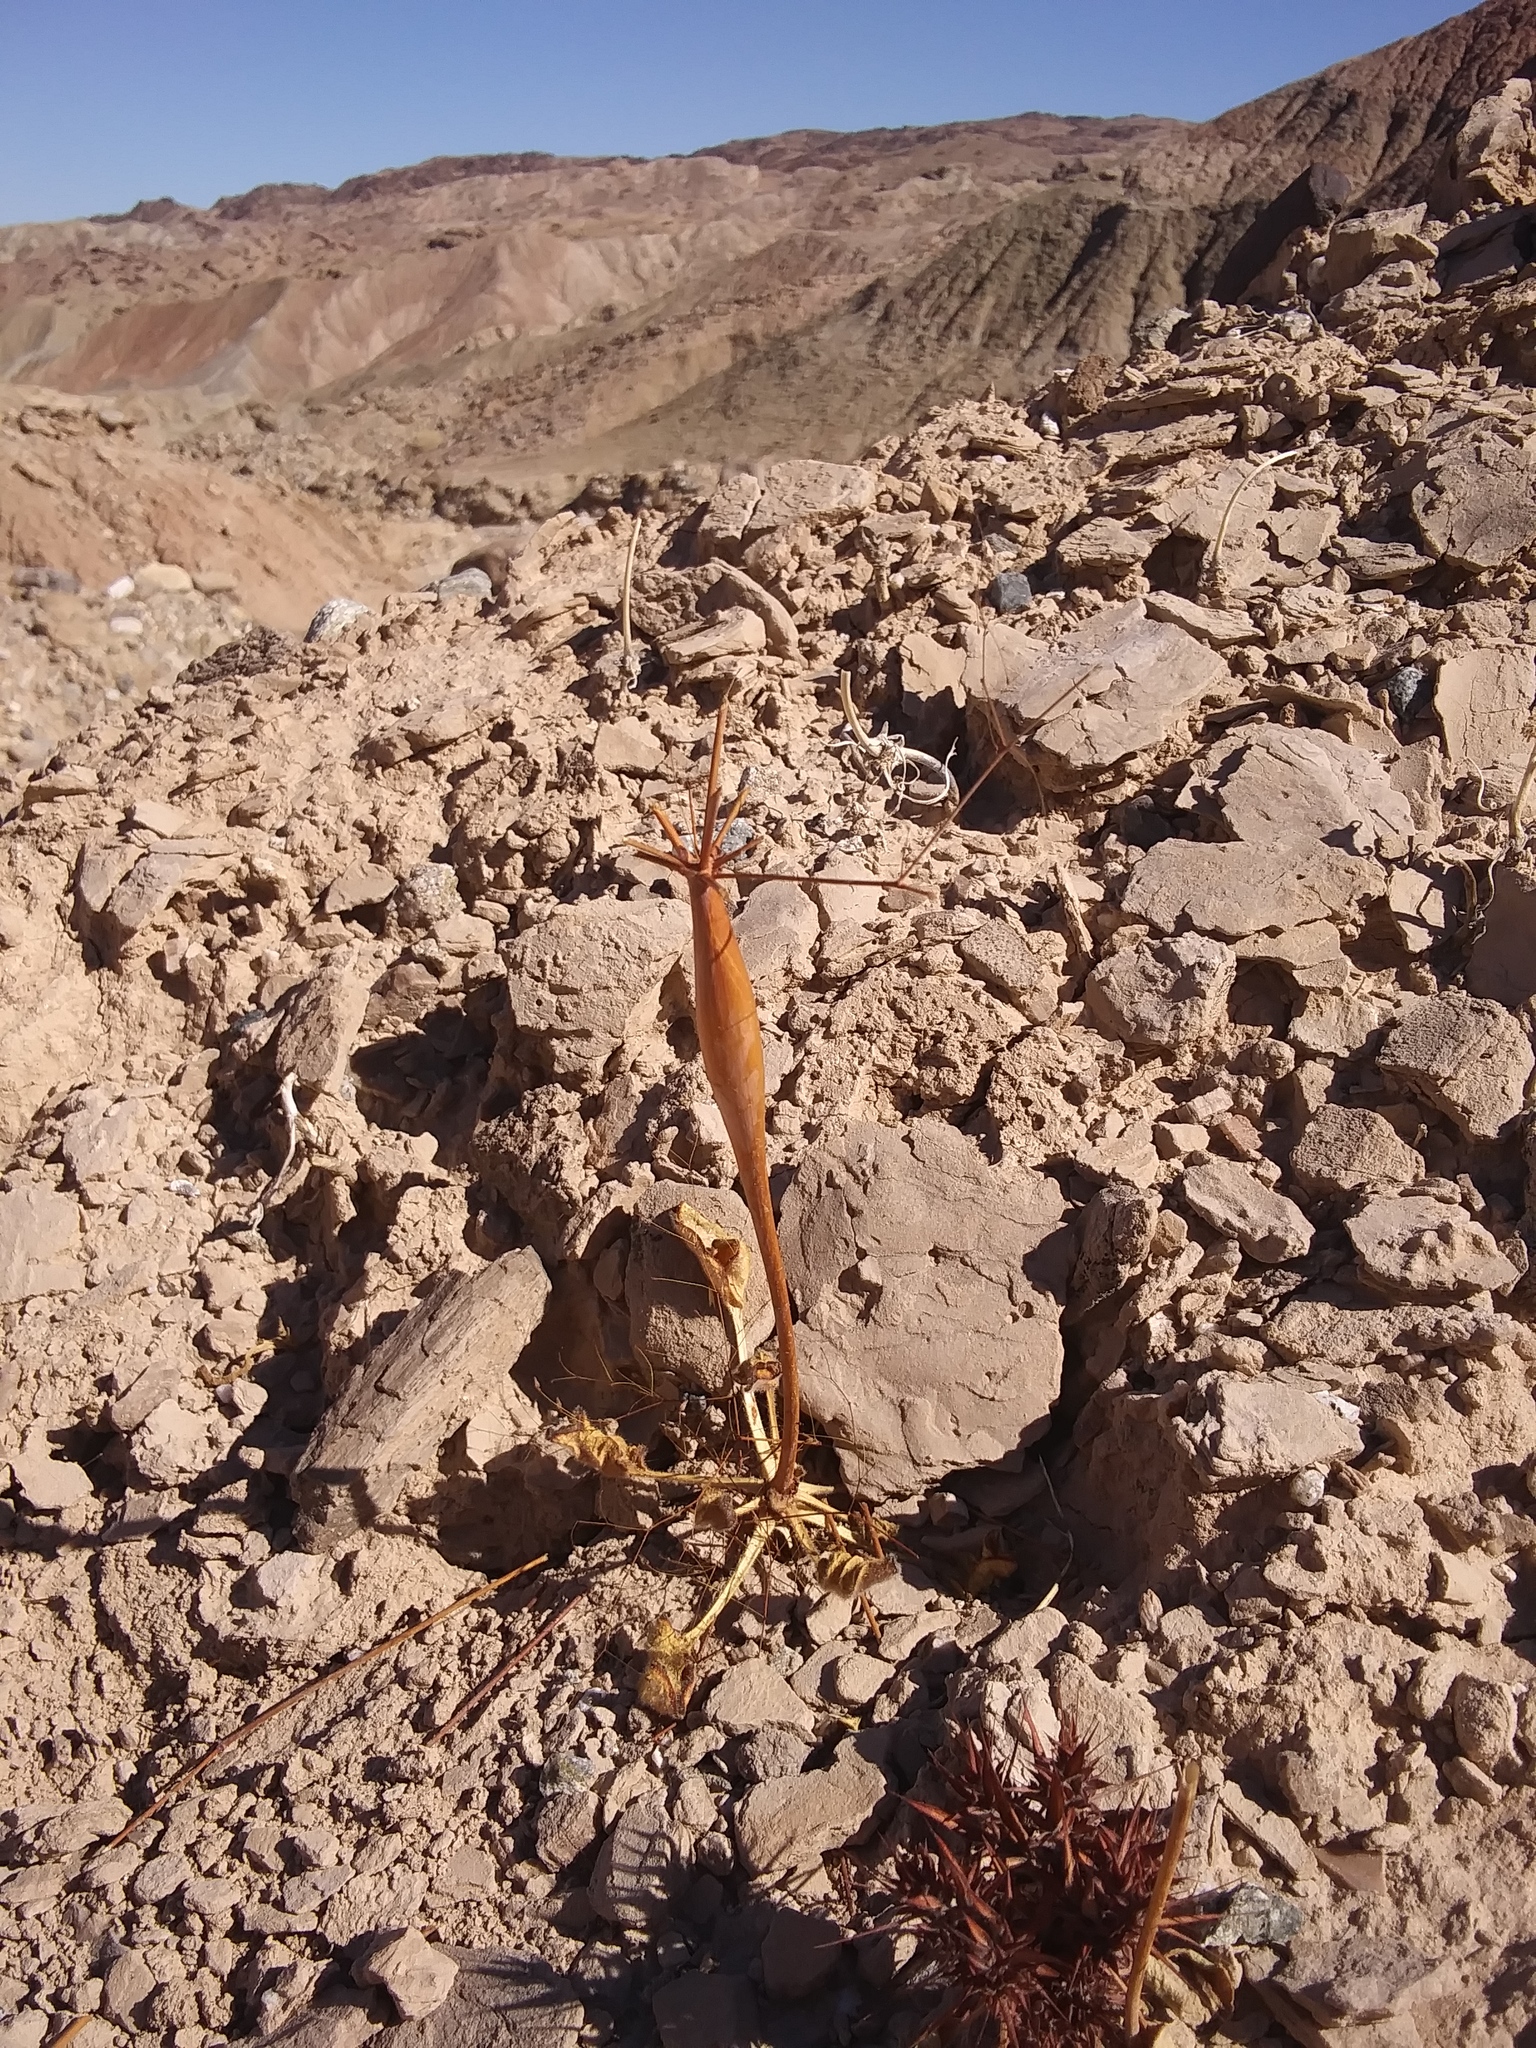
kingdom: Plantae
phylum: Tracheophyta
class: Magnoliopsida
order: Caryophyllales
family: Polygonaceae
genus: Eriogonum
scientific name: Eriogonum trichopes
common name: Little desert trumpet
